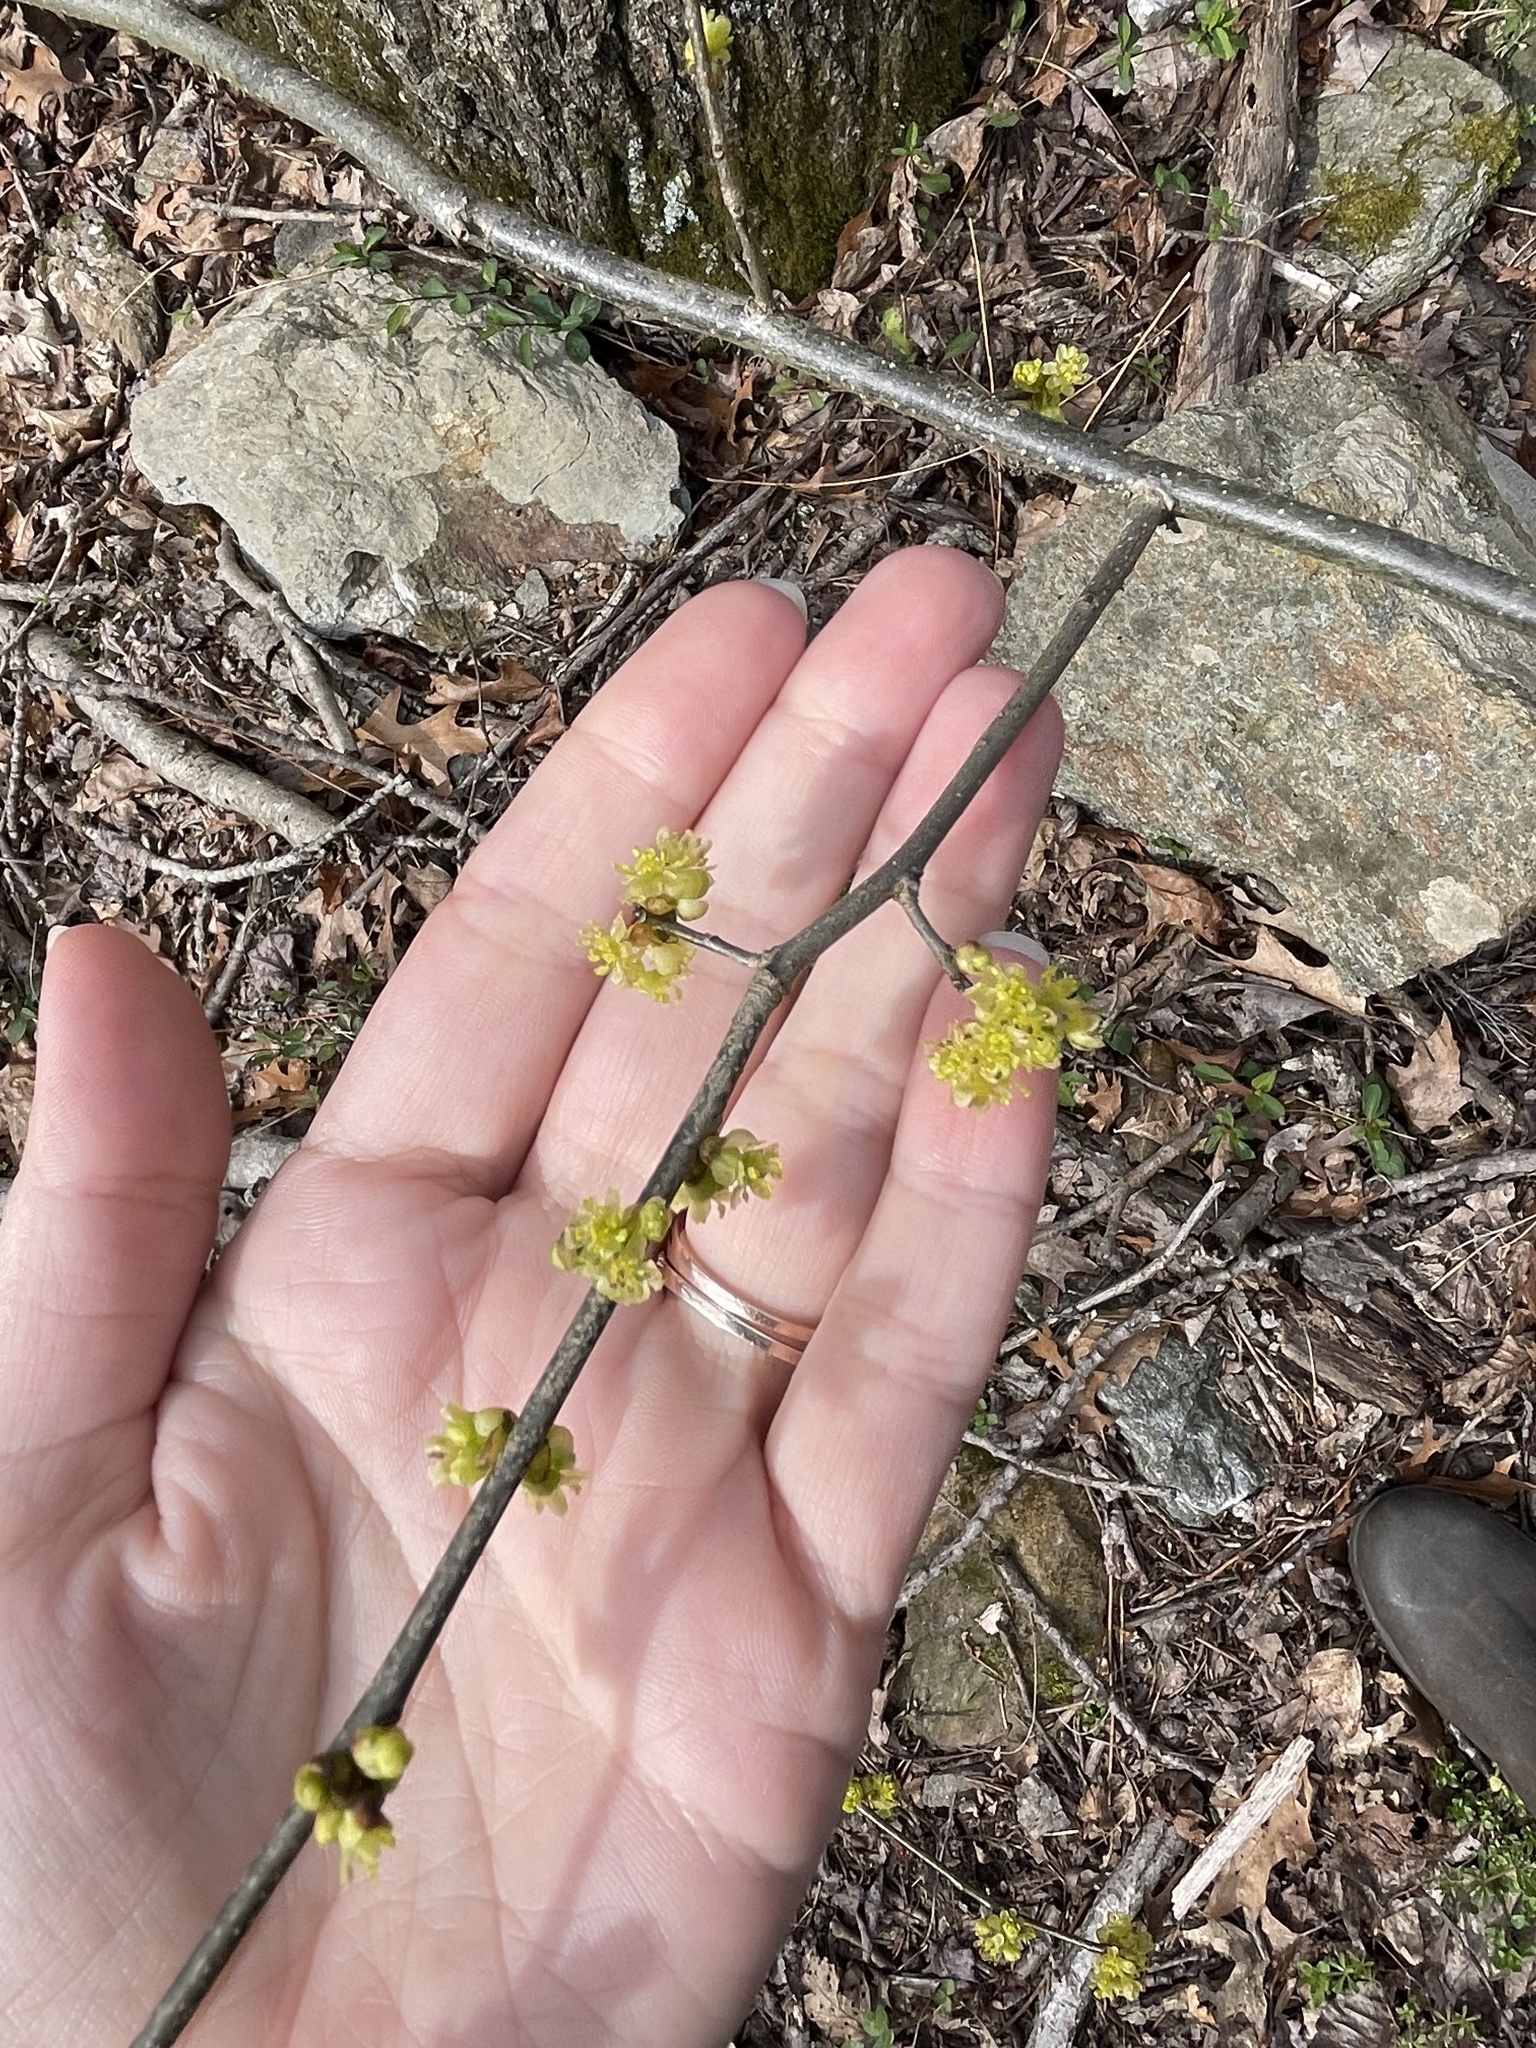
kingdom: Plantae
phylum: Tracheophyta
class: Magnoliopsida
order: Laurales
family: Lauraceae
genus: Lindera
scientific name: Lindera benzoin
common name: Spicebush
